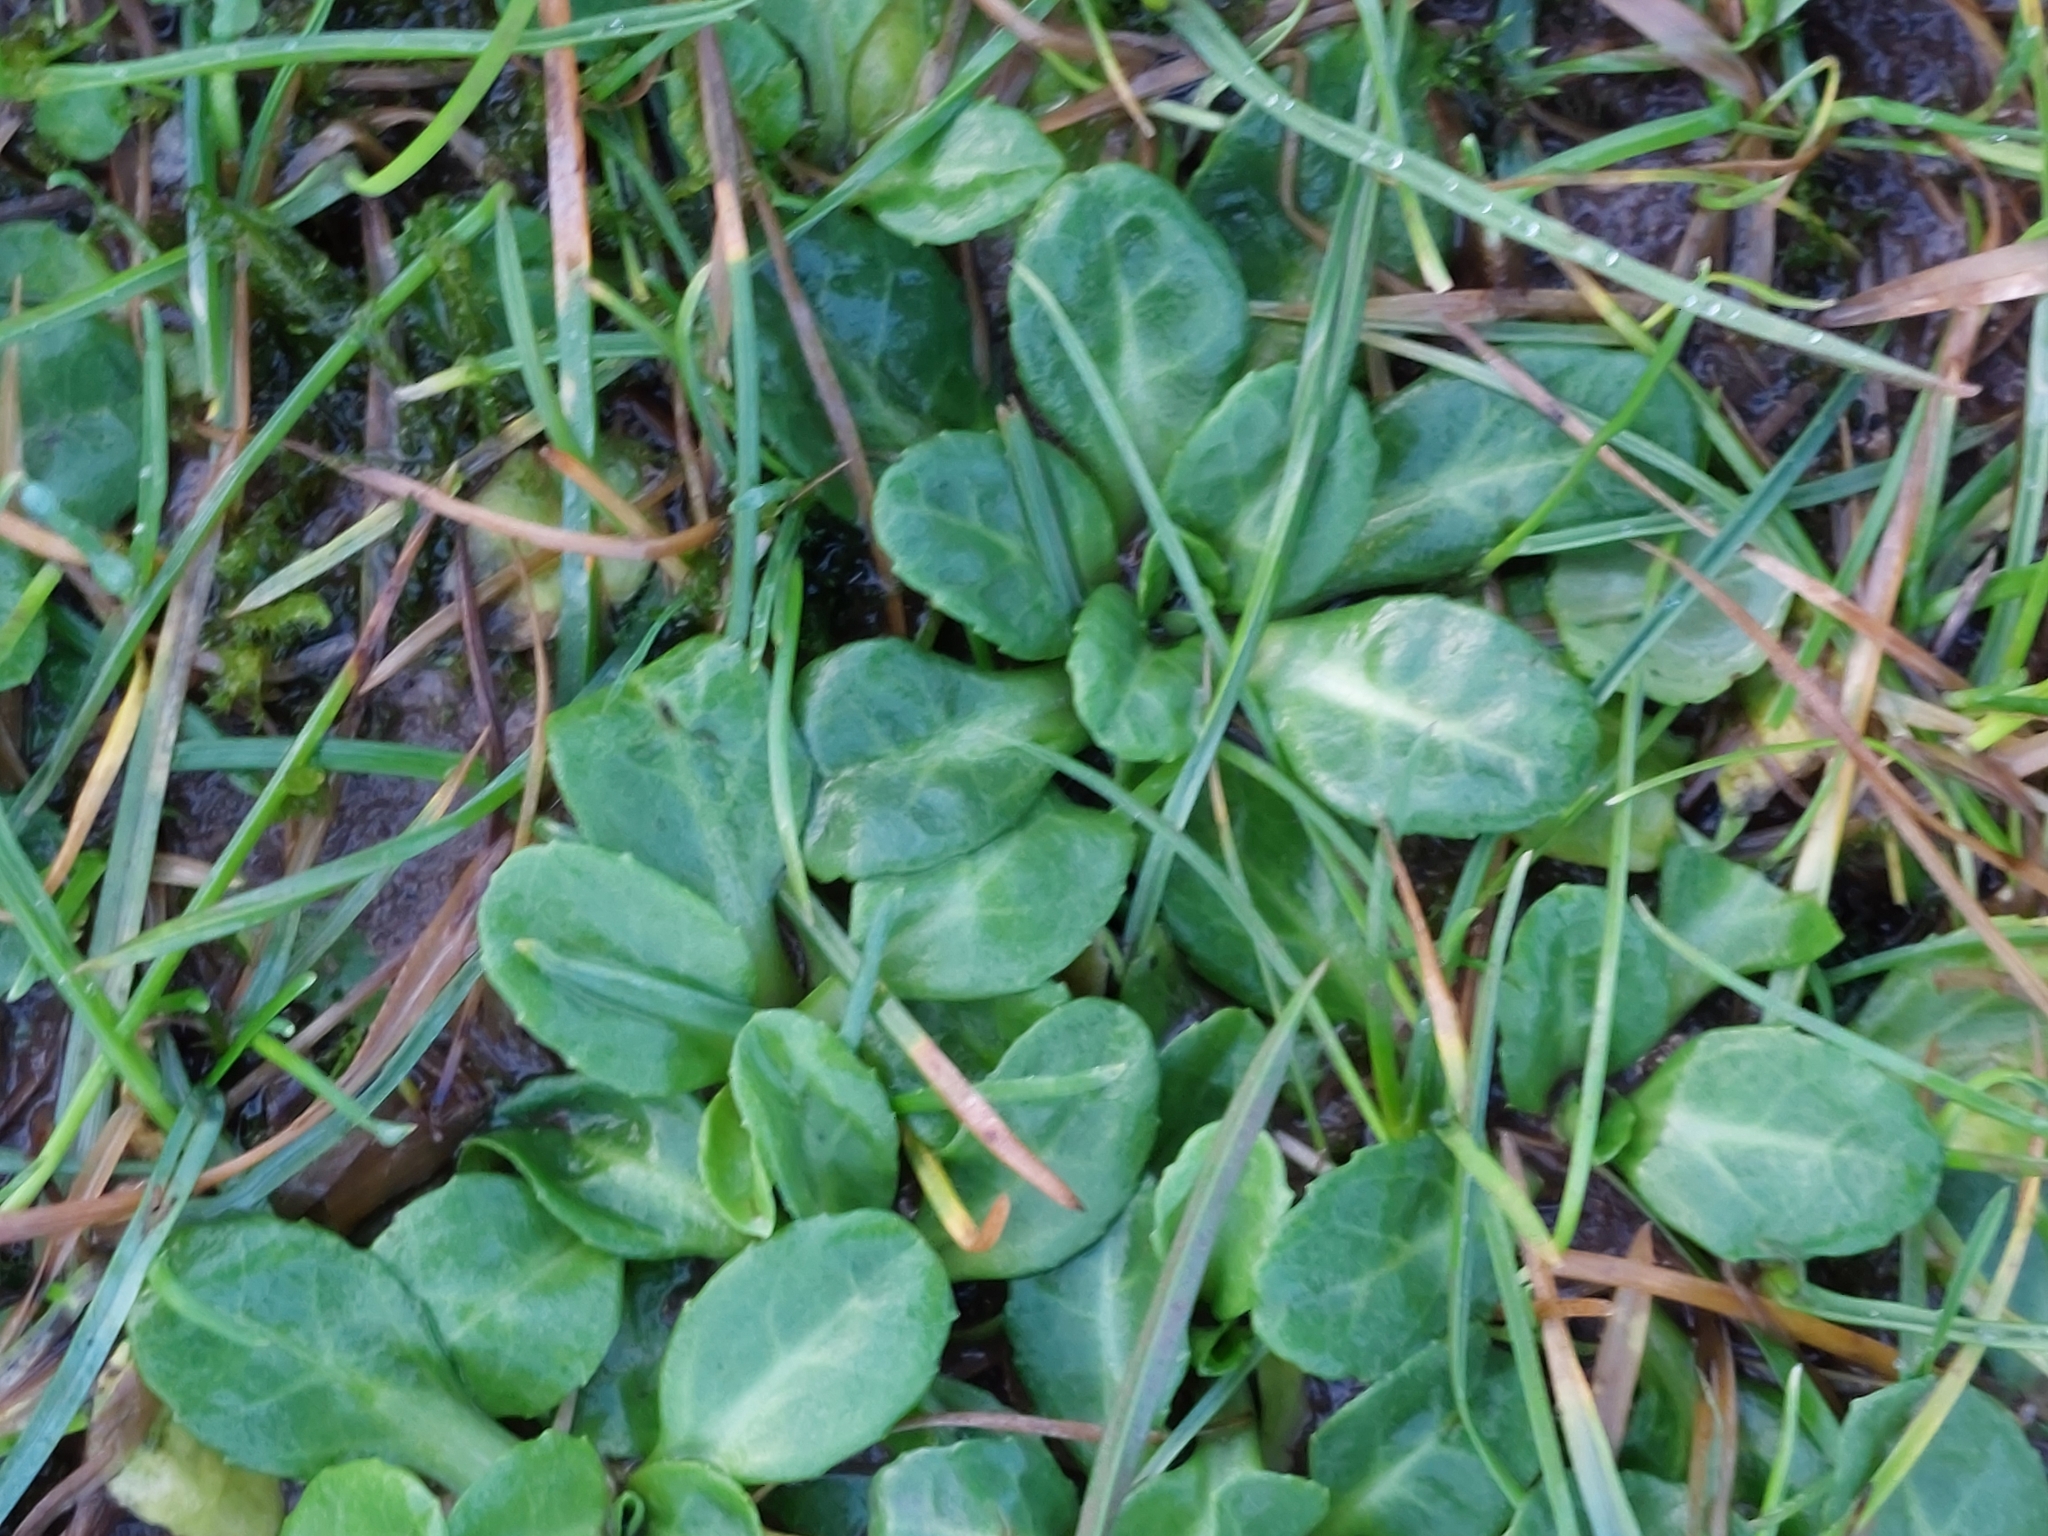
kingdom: Plantae
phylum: Tracheophyta
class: Magnoliopsida
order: Asterales
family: Asteraceae
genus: Bellis
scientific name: Bellis perennis
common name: Lawndaisy
